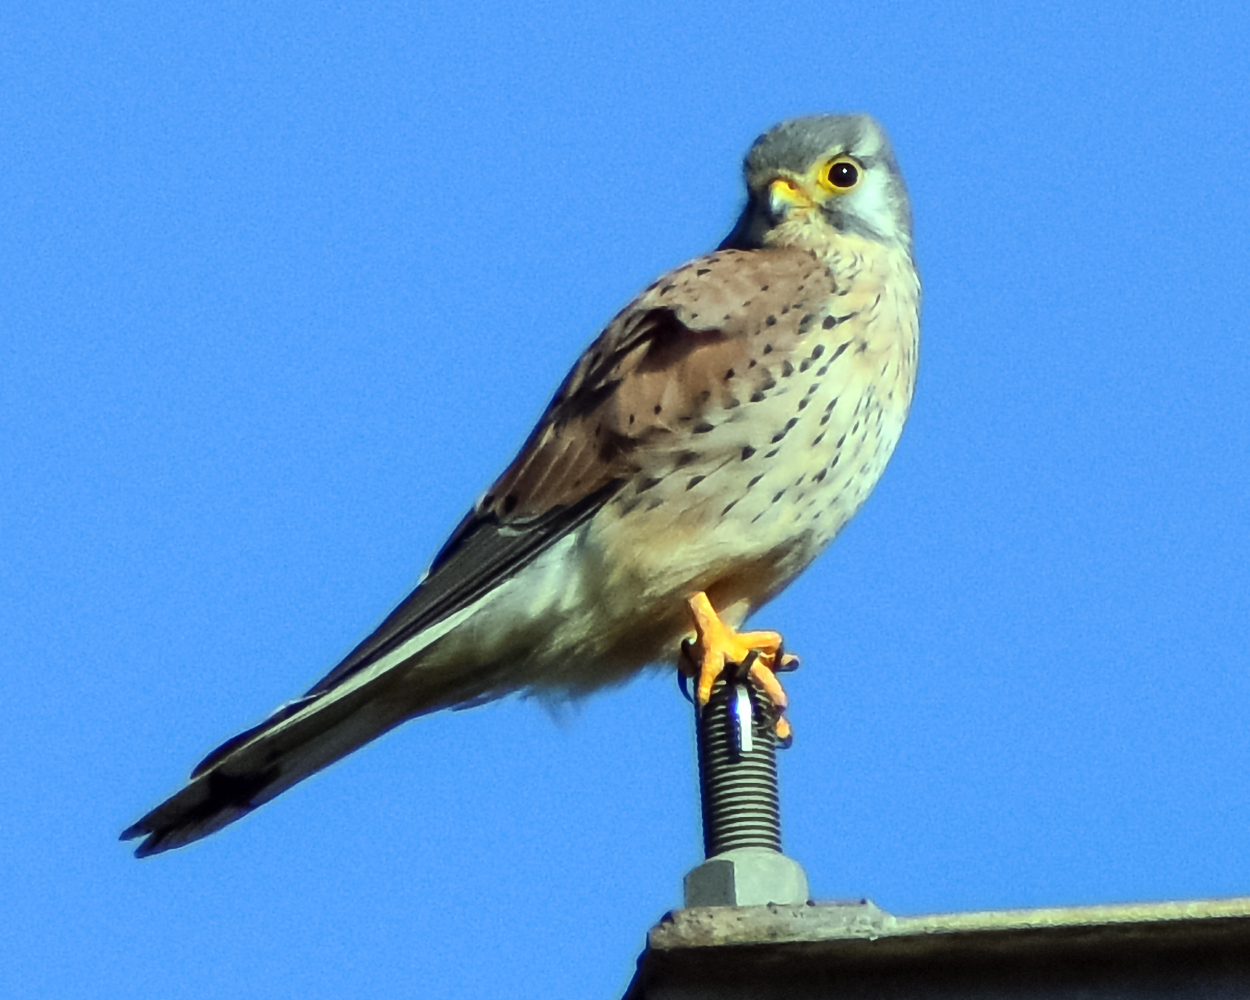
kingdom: Animalia
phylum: Chordata
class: Aves
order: Falconiformes
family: Falconidae
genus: Falco
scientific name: Falco tinnunculus
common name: Common kestrel
